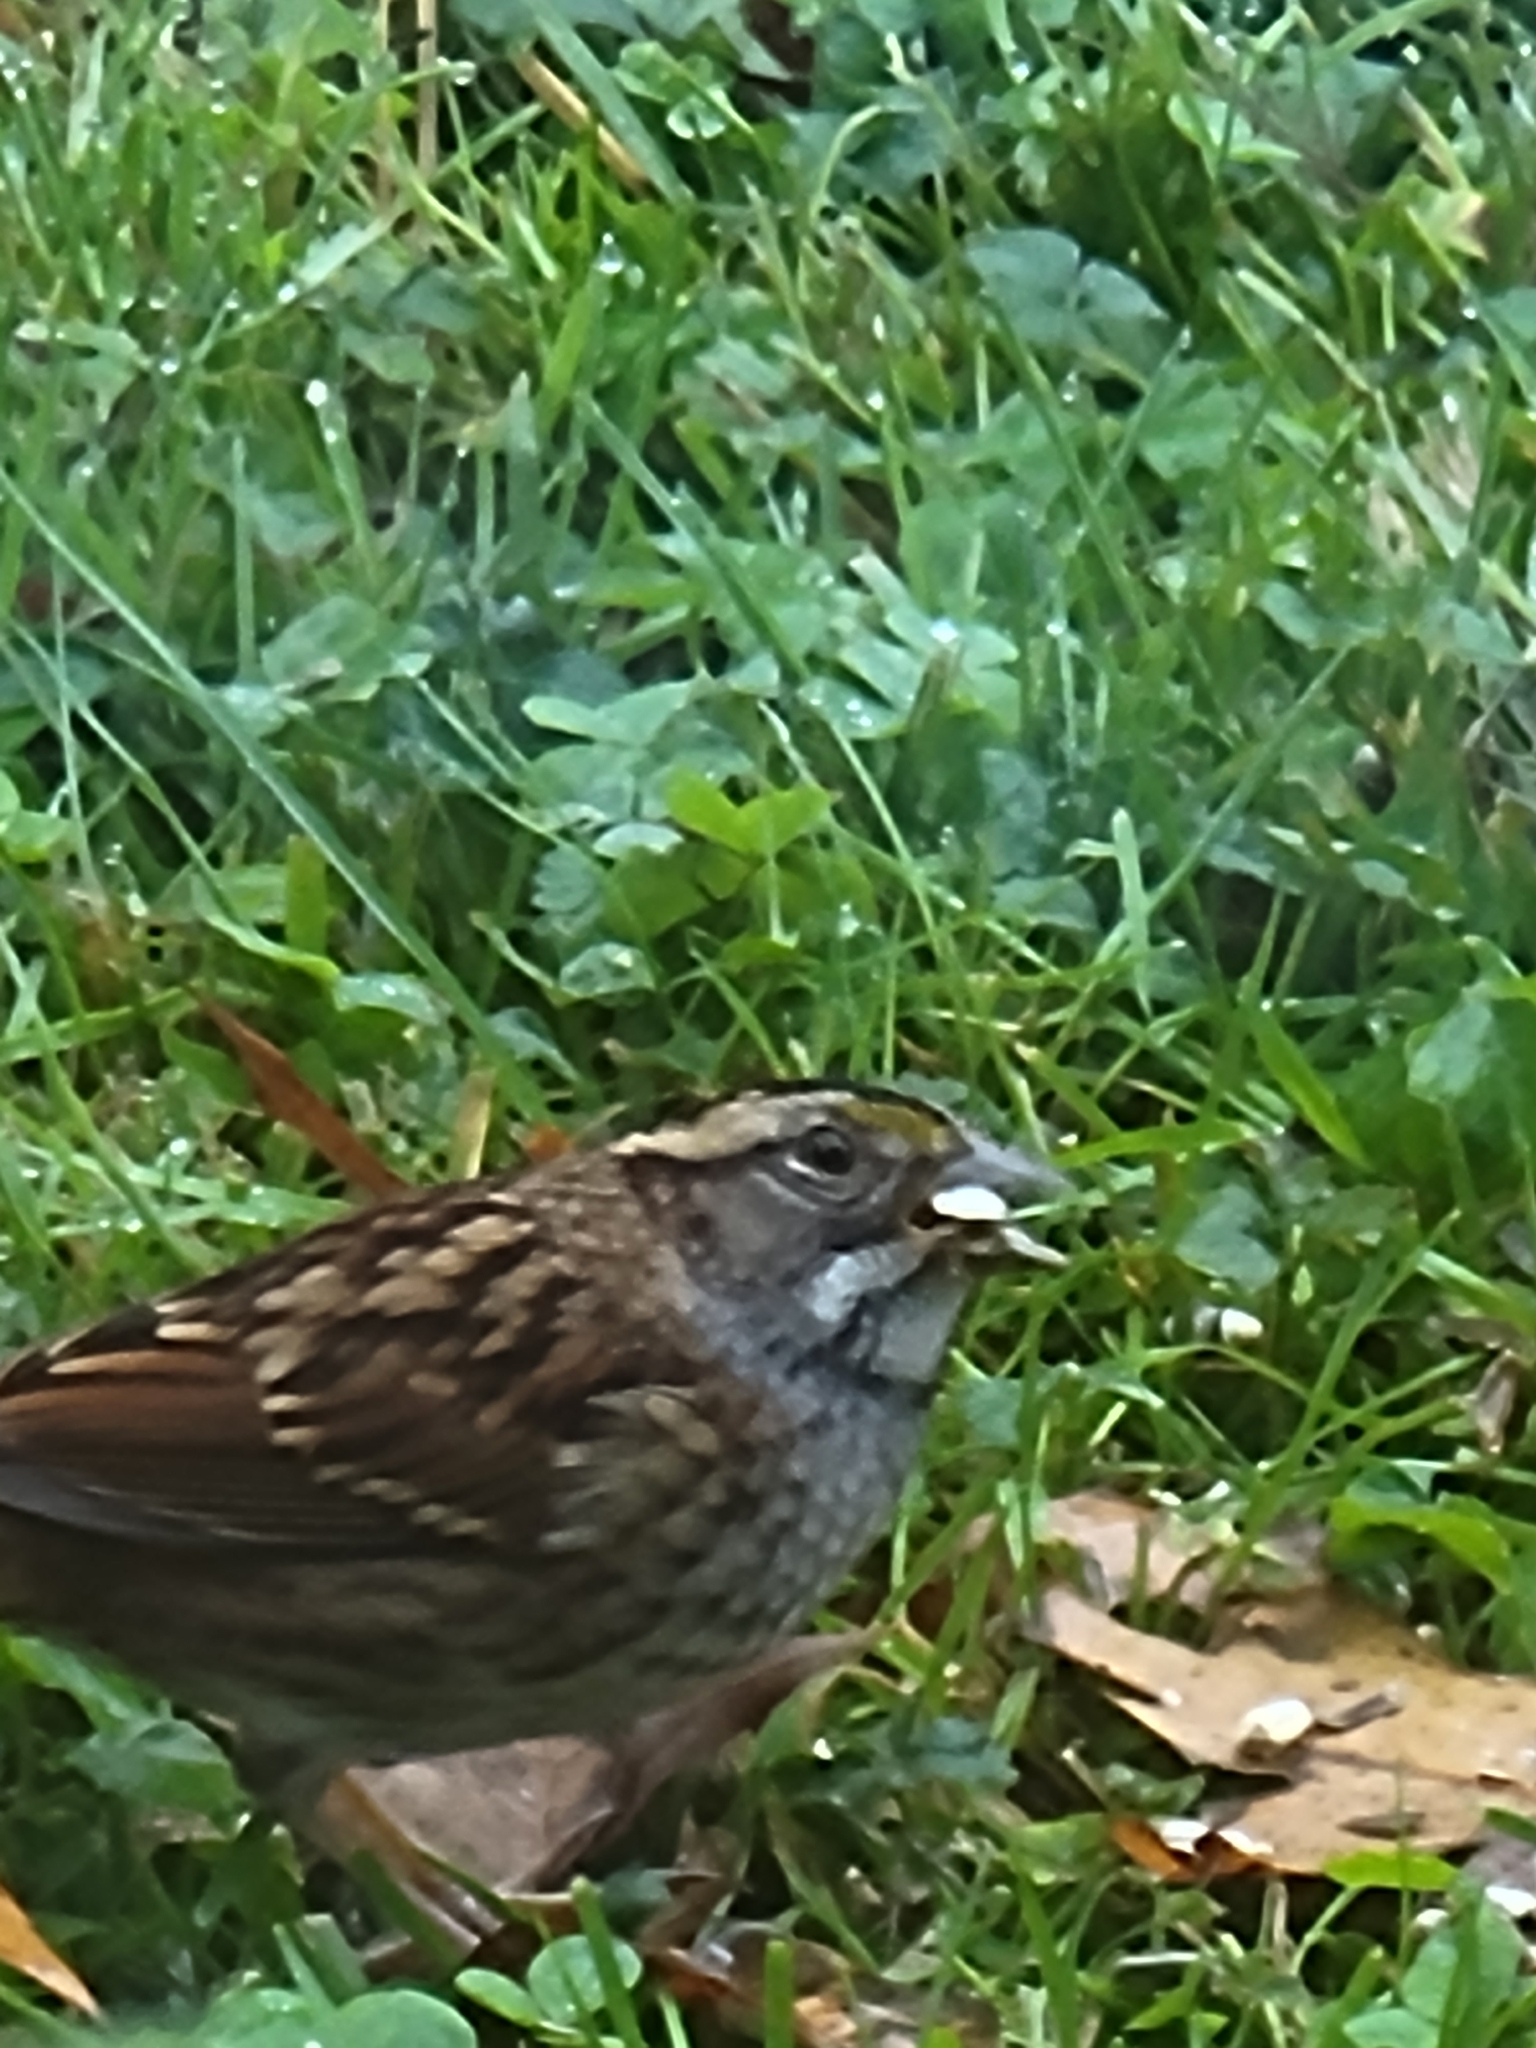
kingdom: Animalia
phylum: Chordata
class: Aves
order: Passeriformes
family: Passerellidae
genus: Zonotrichia
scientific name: Zonotrichia albicollis
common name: White-throated sparrow
